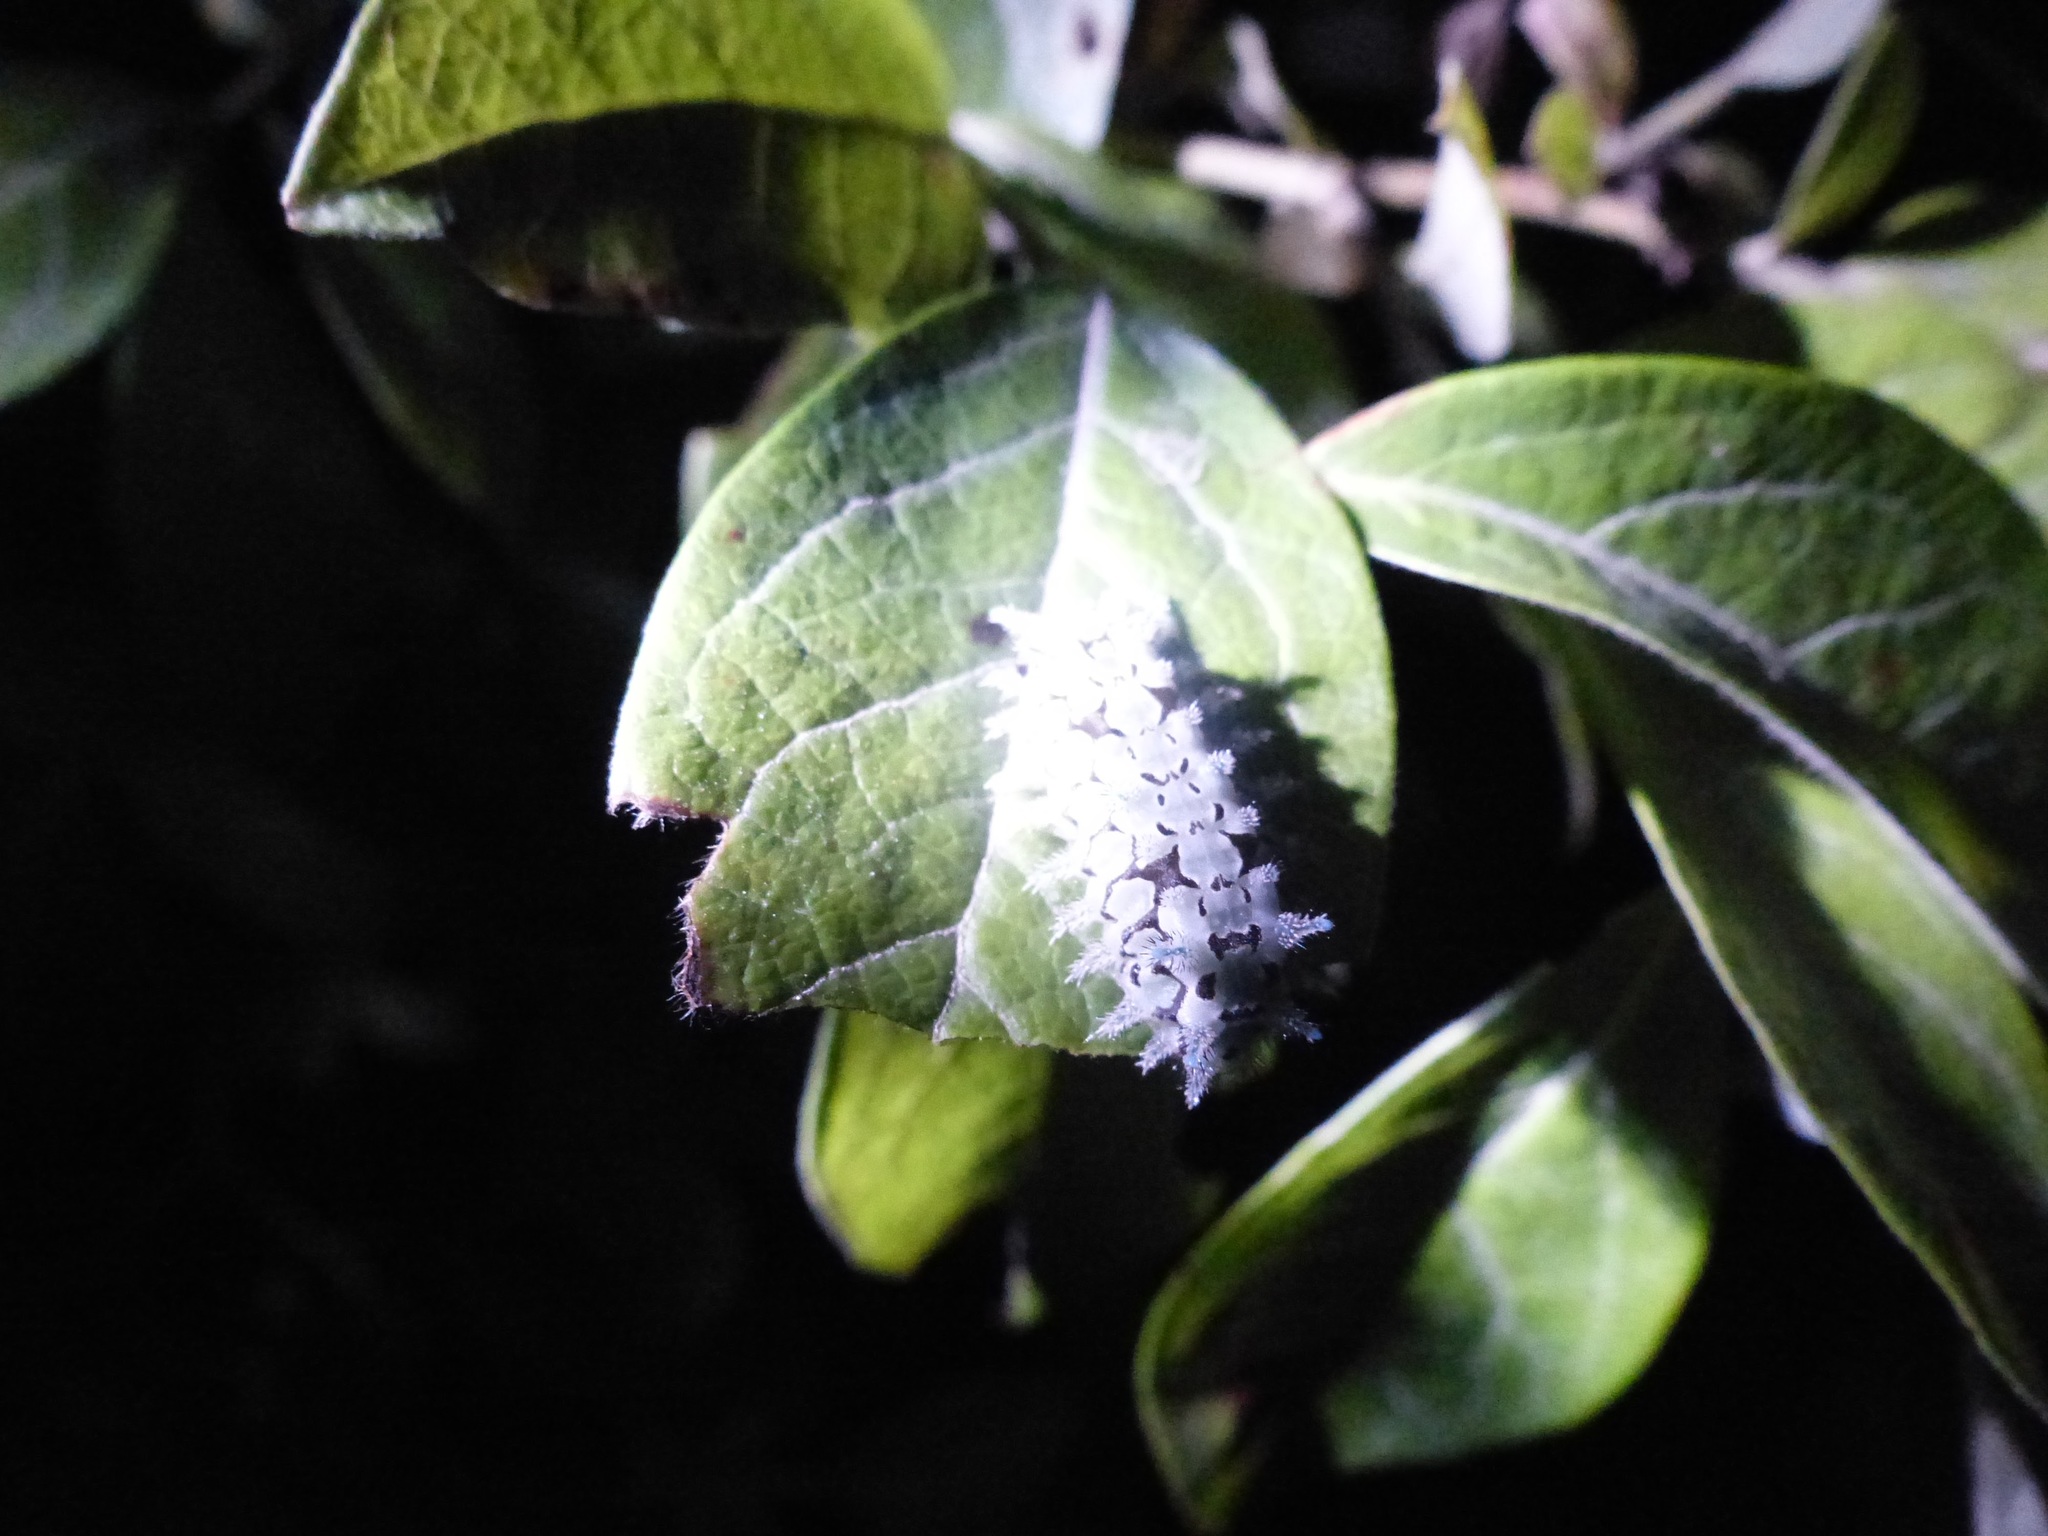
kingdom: Animalia
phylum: Arthropoda
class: Insecta
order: Lepidoptera
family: Limacodidae
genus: Euclea
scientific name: Euclea delphinii
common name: Spiny oak-slug moth
